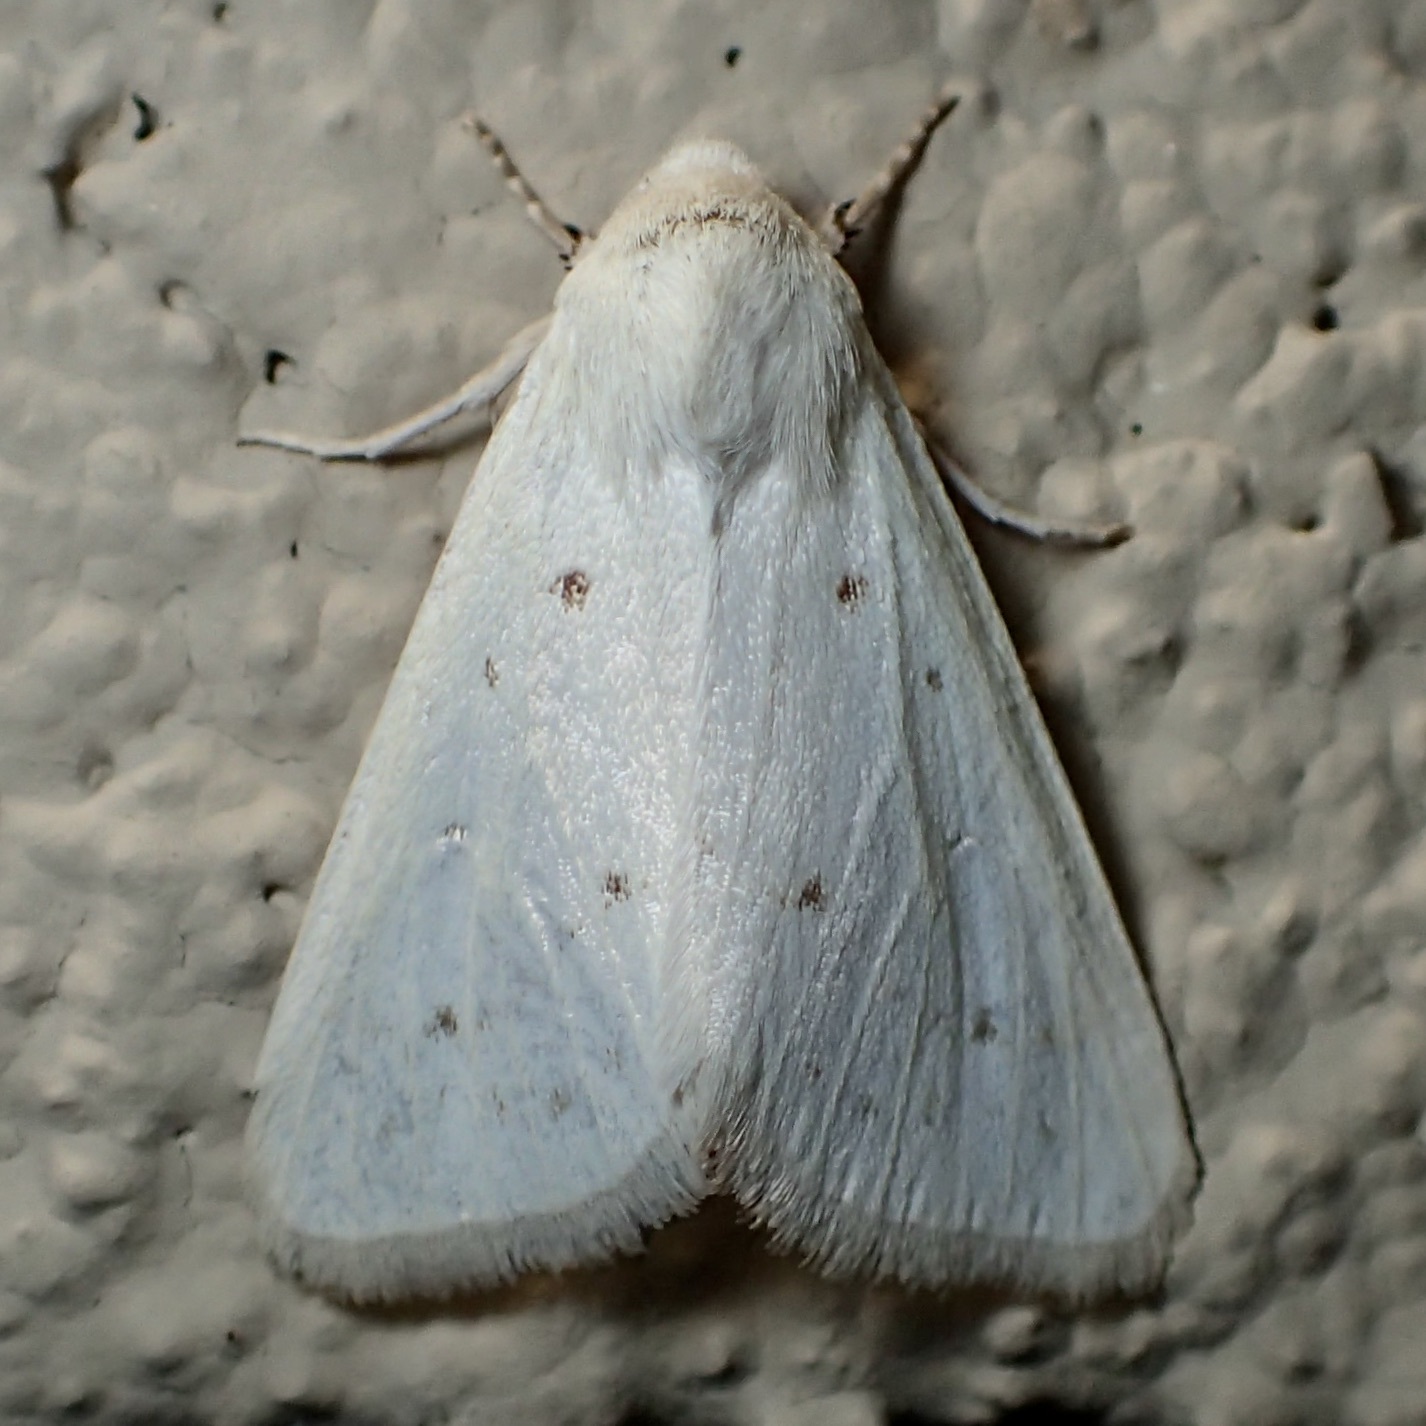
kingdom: Animalia
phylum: Arthropoda
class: Insecta
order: Lepidoptera
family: Noctuidae
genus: Schinia
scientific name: Schinia luxa
